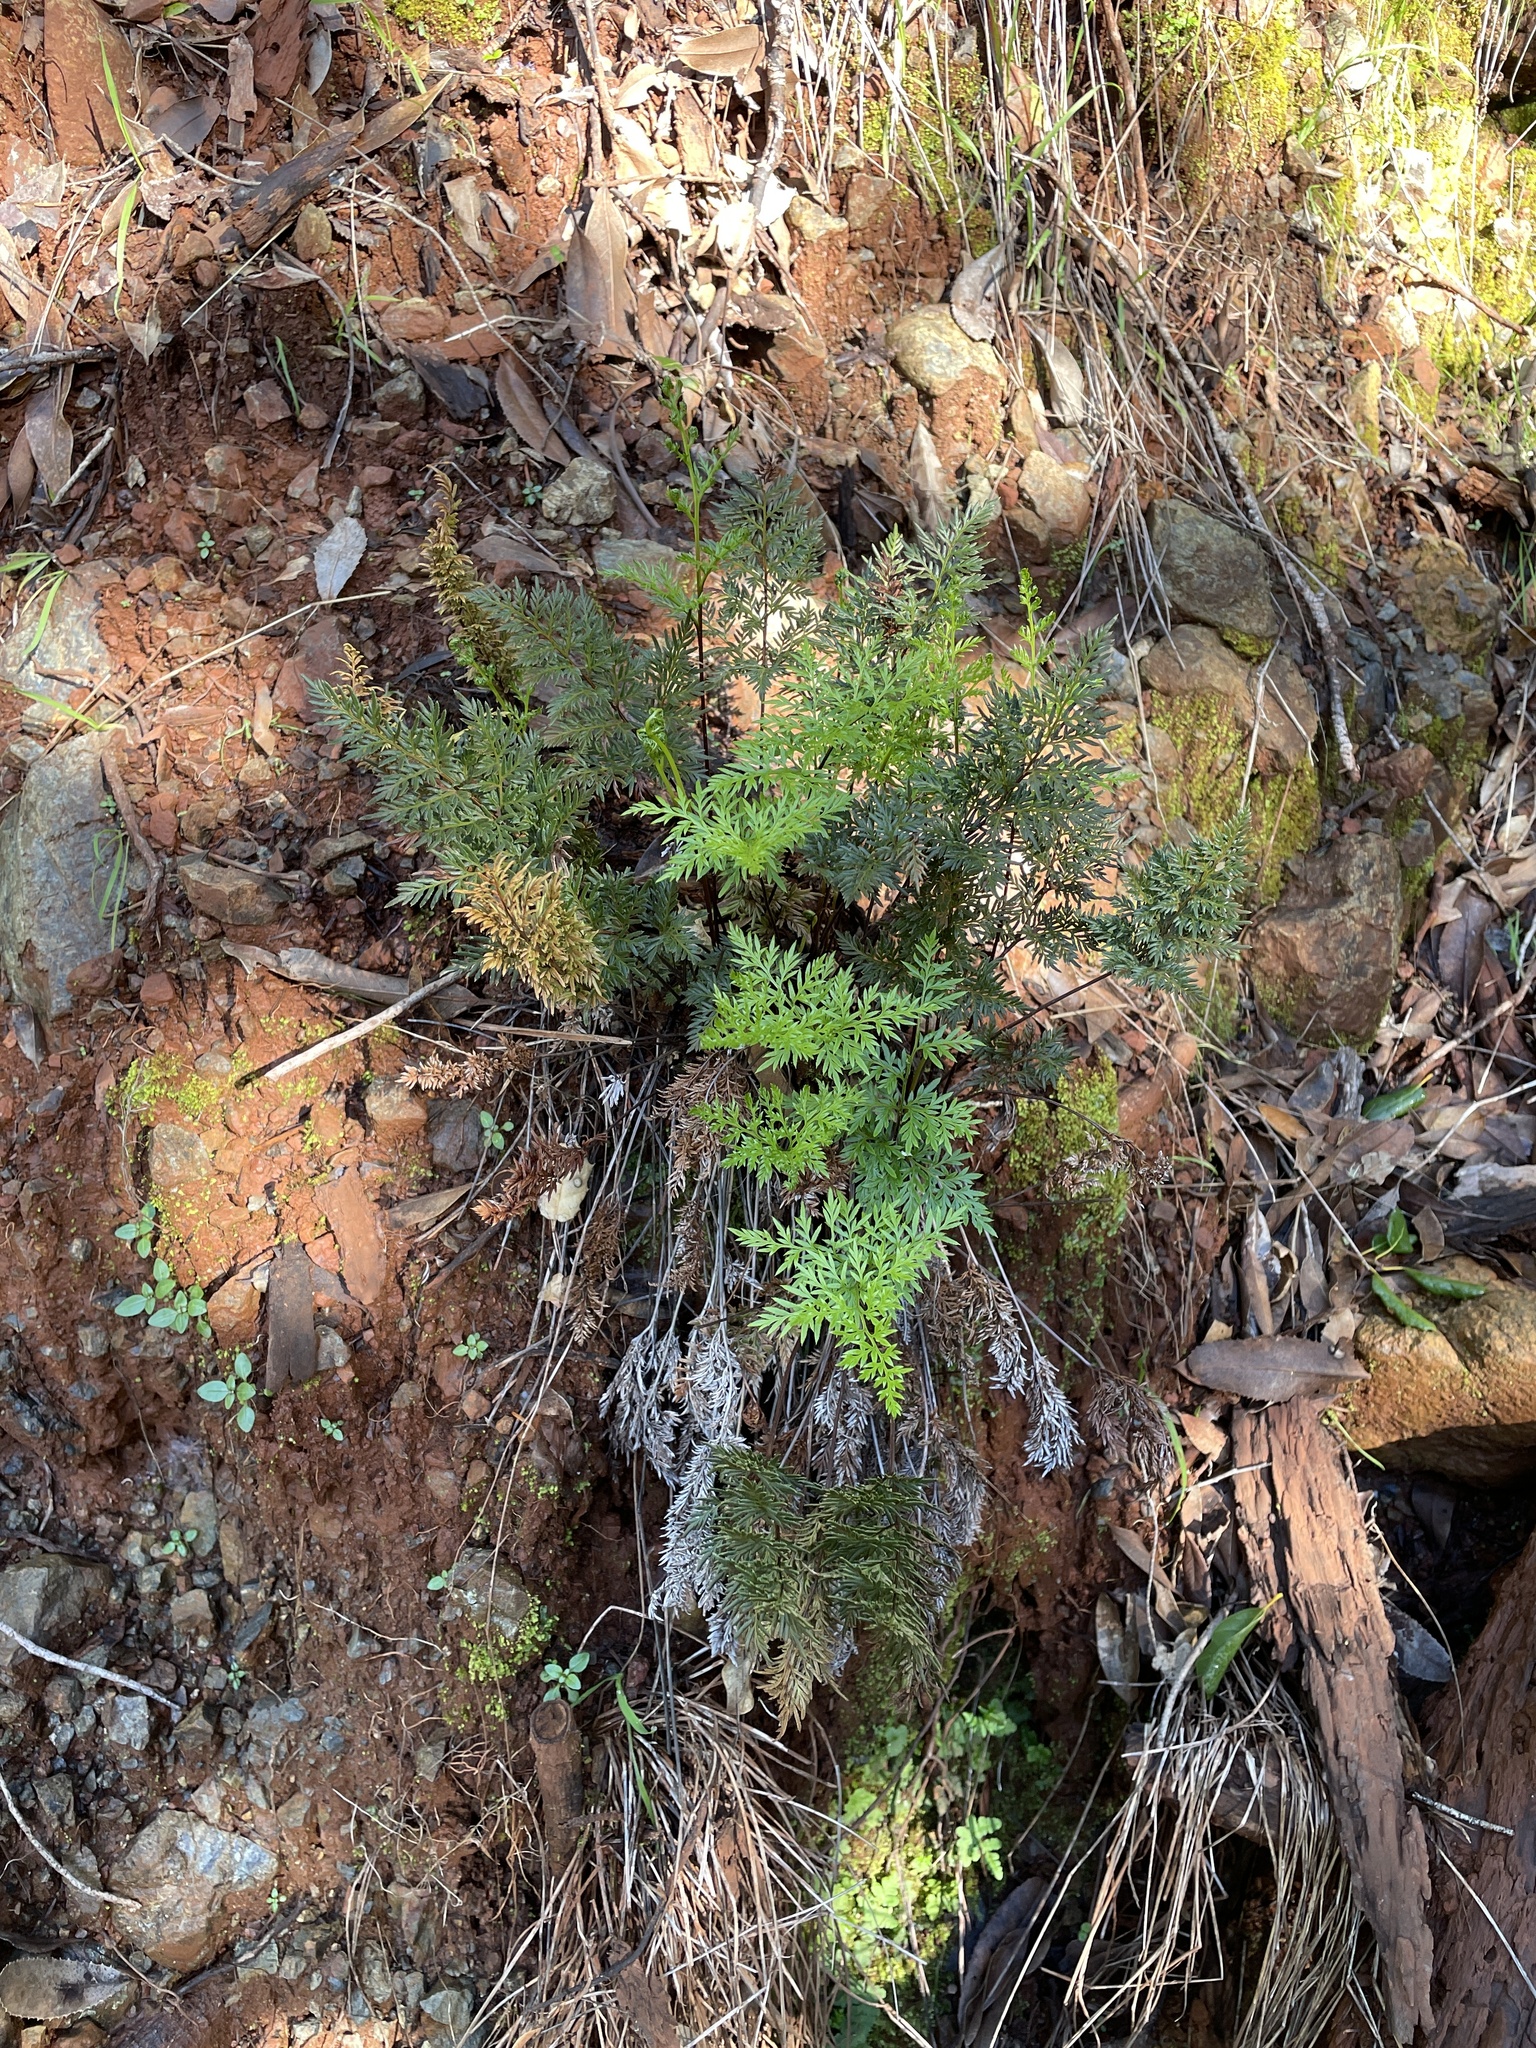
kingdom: Plantae
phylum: Tracheophyta
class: Polypodiopsida
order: Polypodiales
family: Pteridaceae
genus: Aspidotis
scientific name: Aspidotis densa
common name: Indian's dream
